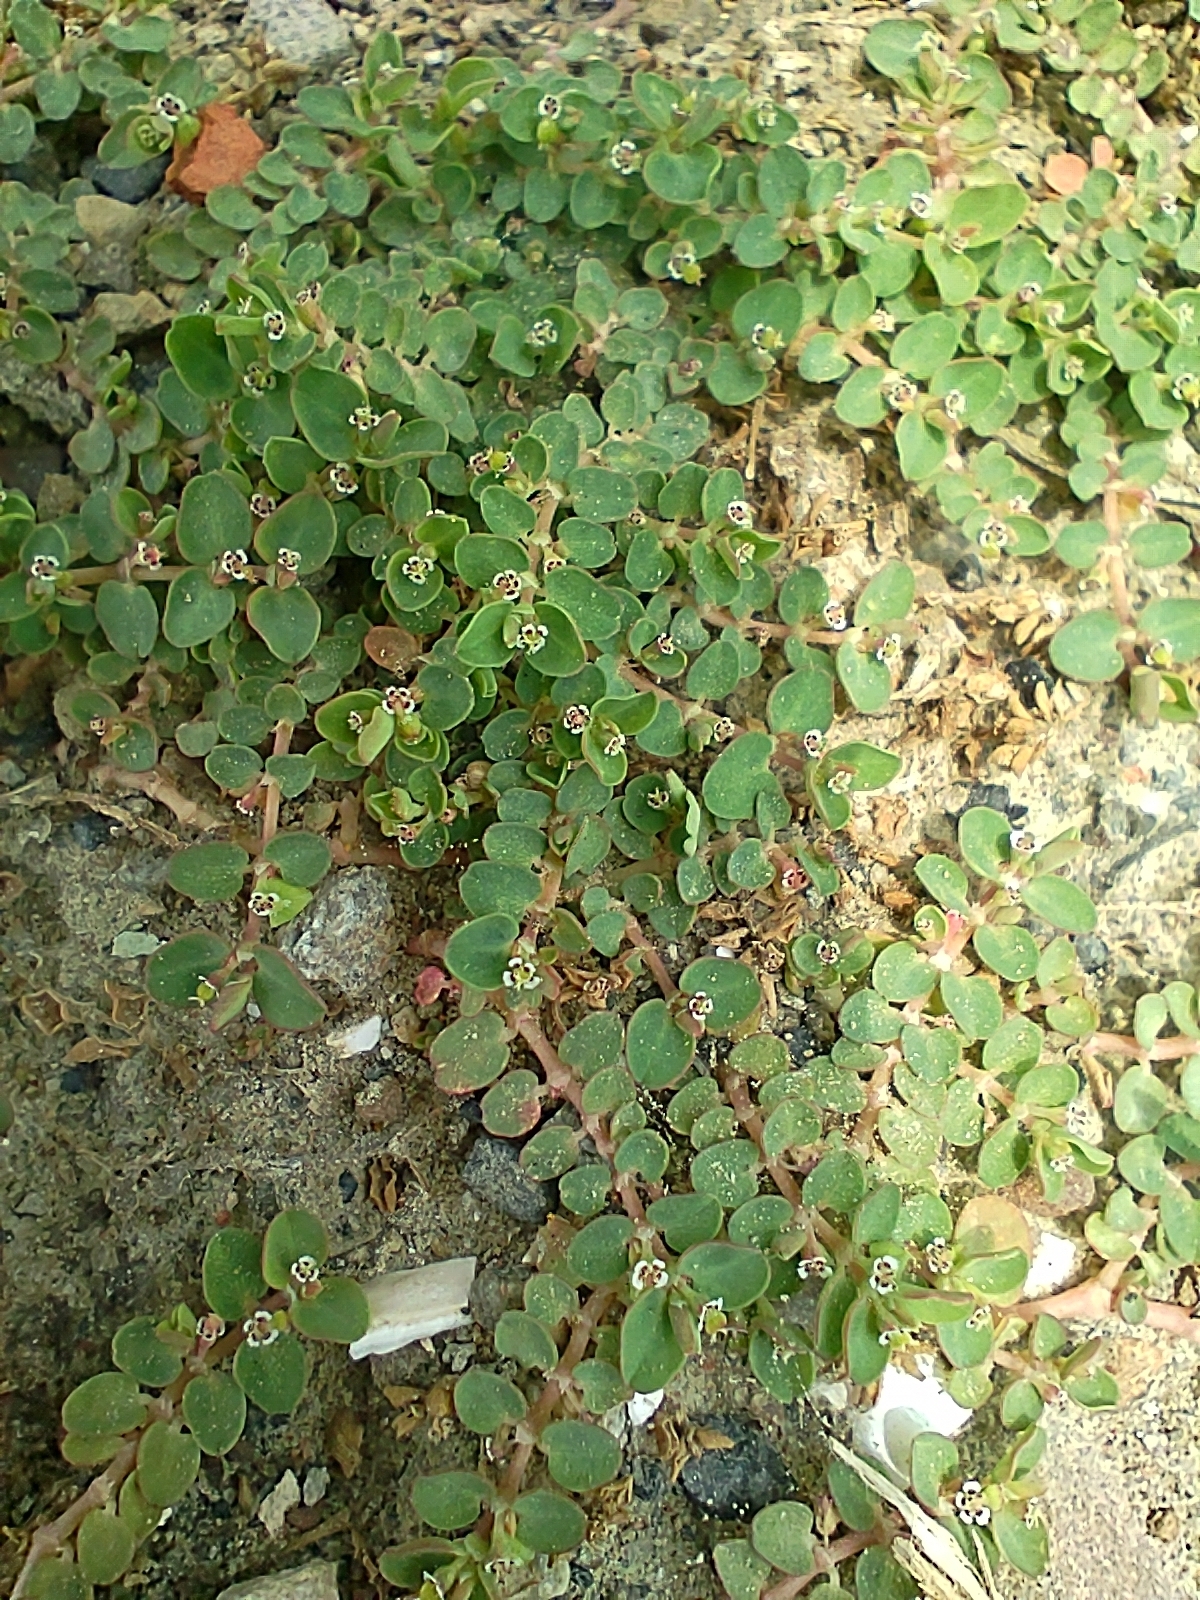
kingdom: Plantae
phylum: Tracheophyta
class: Magnoliopsida
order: Malpighiales
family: Euphorbiaceae
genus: Euphorbia
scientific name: Euphorbia serpens
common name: Matted sandmat
